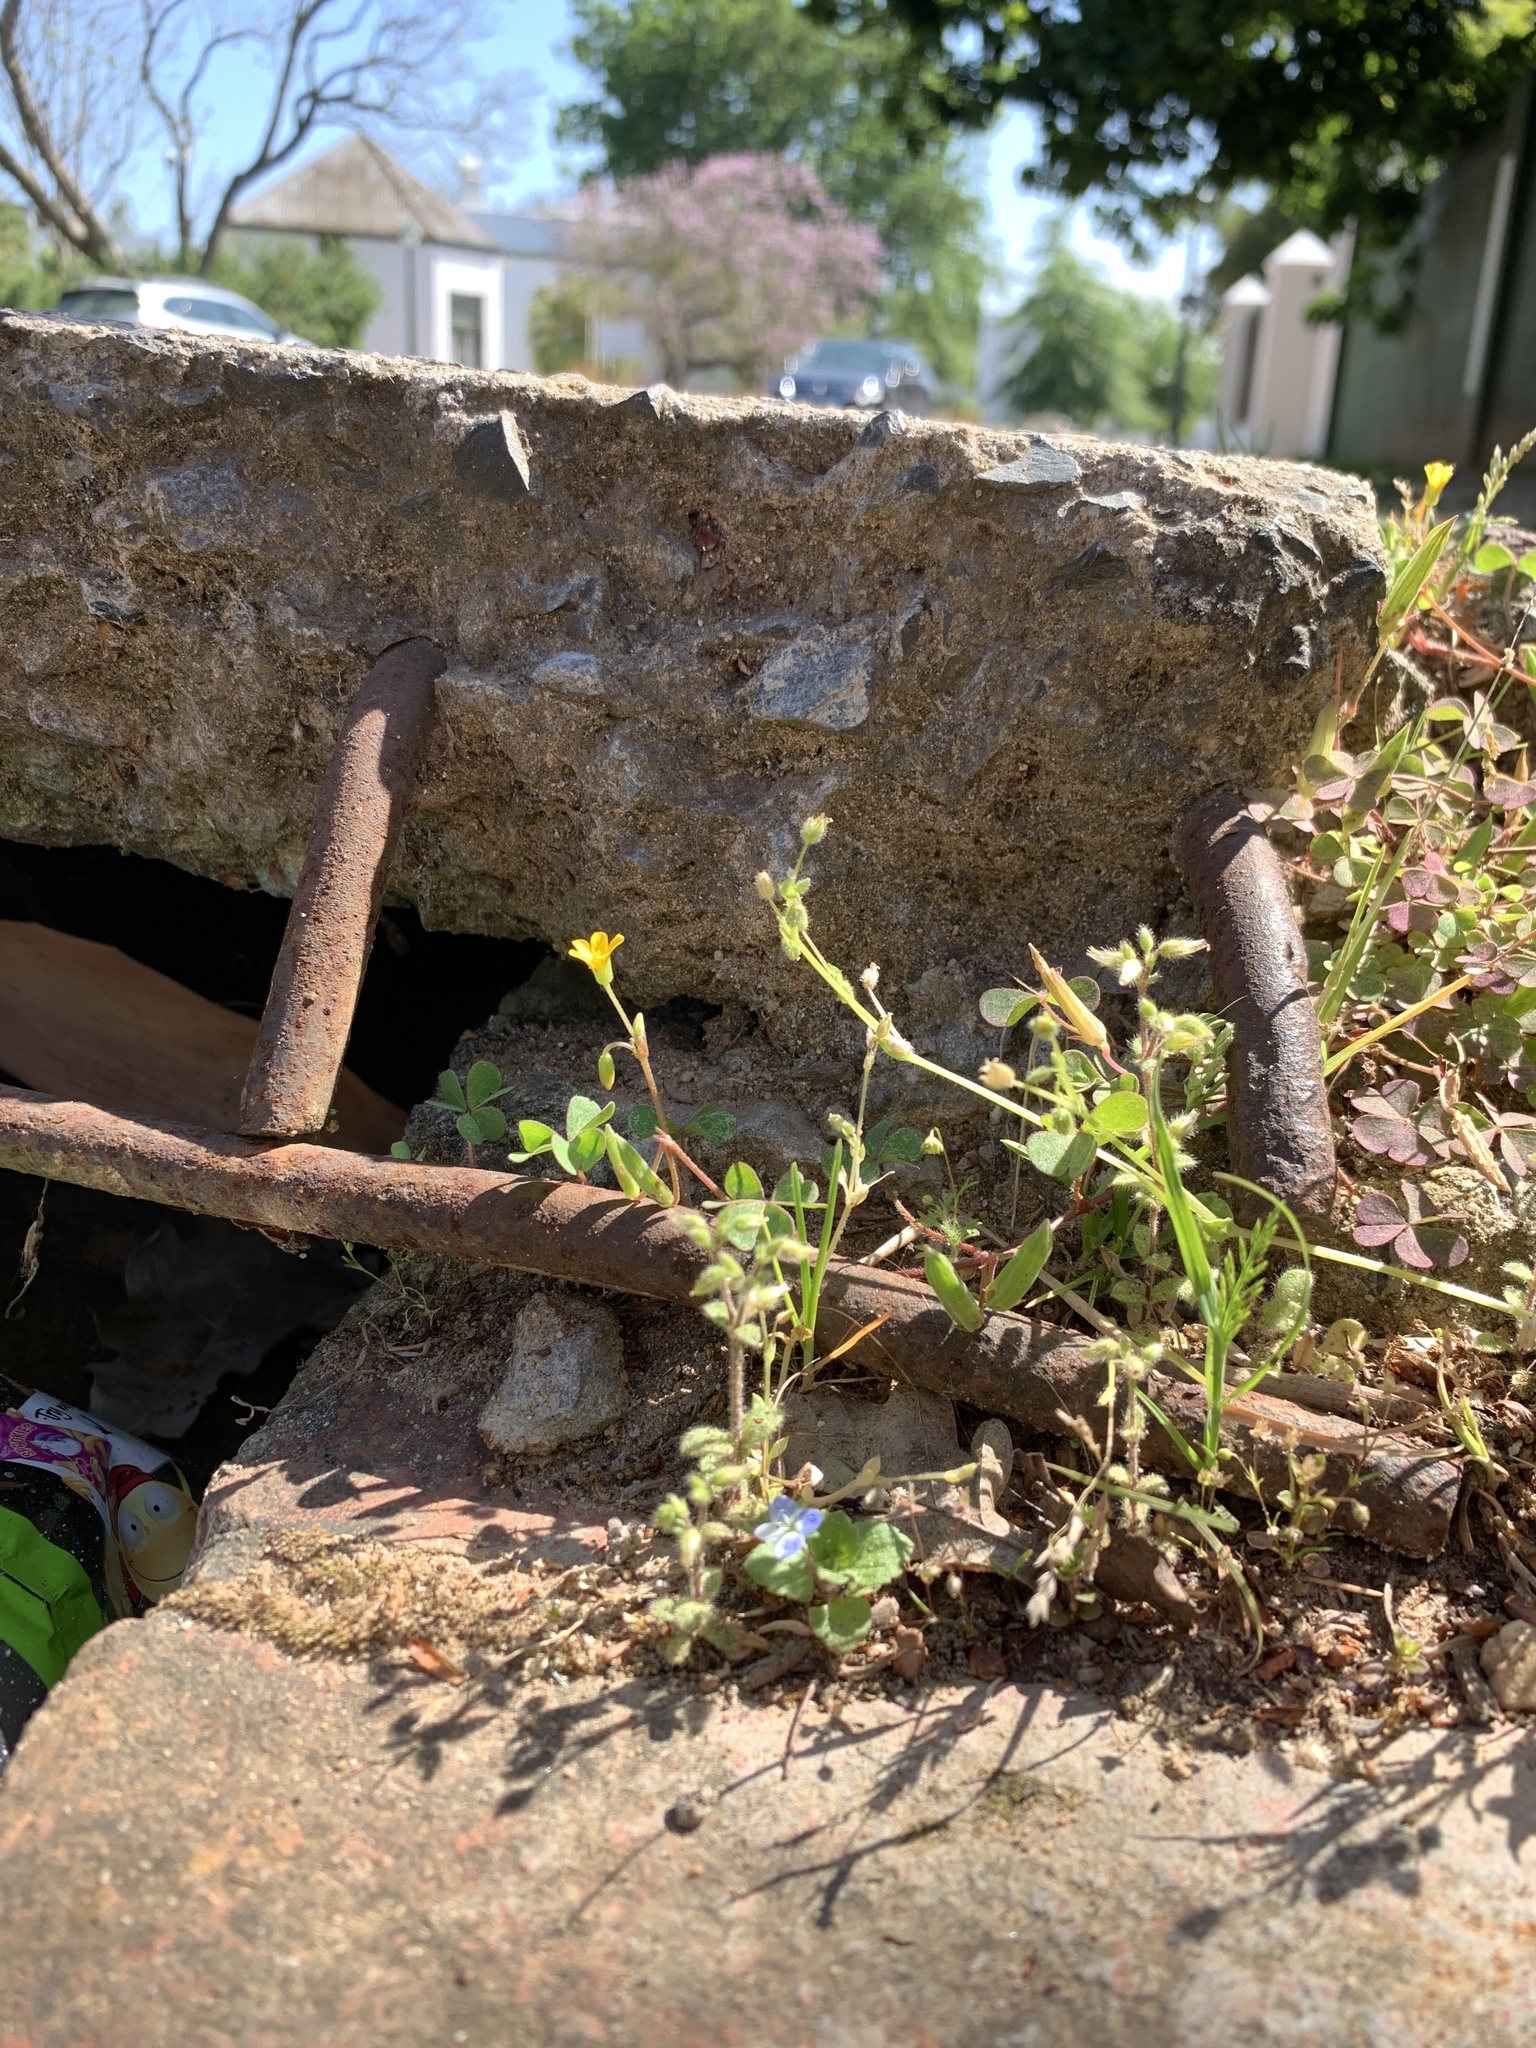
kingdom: Plantae
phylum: Tracheophyta
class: Magnoliopsida
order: Oxalidales
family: Oxalidaceae
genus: Oxalis
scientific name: Oxalis corniculata
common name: Procumbent yellow-sorrel
